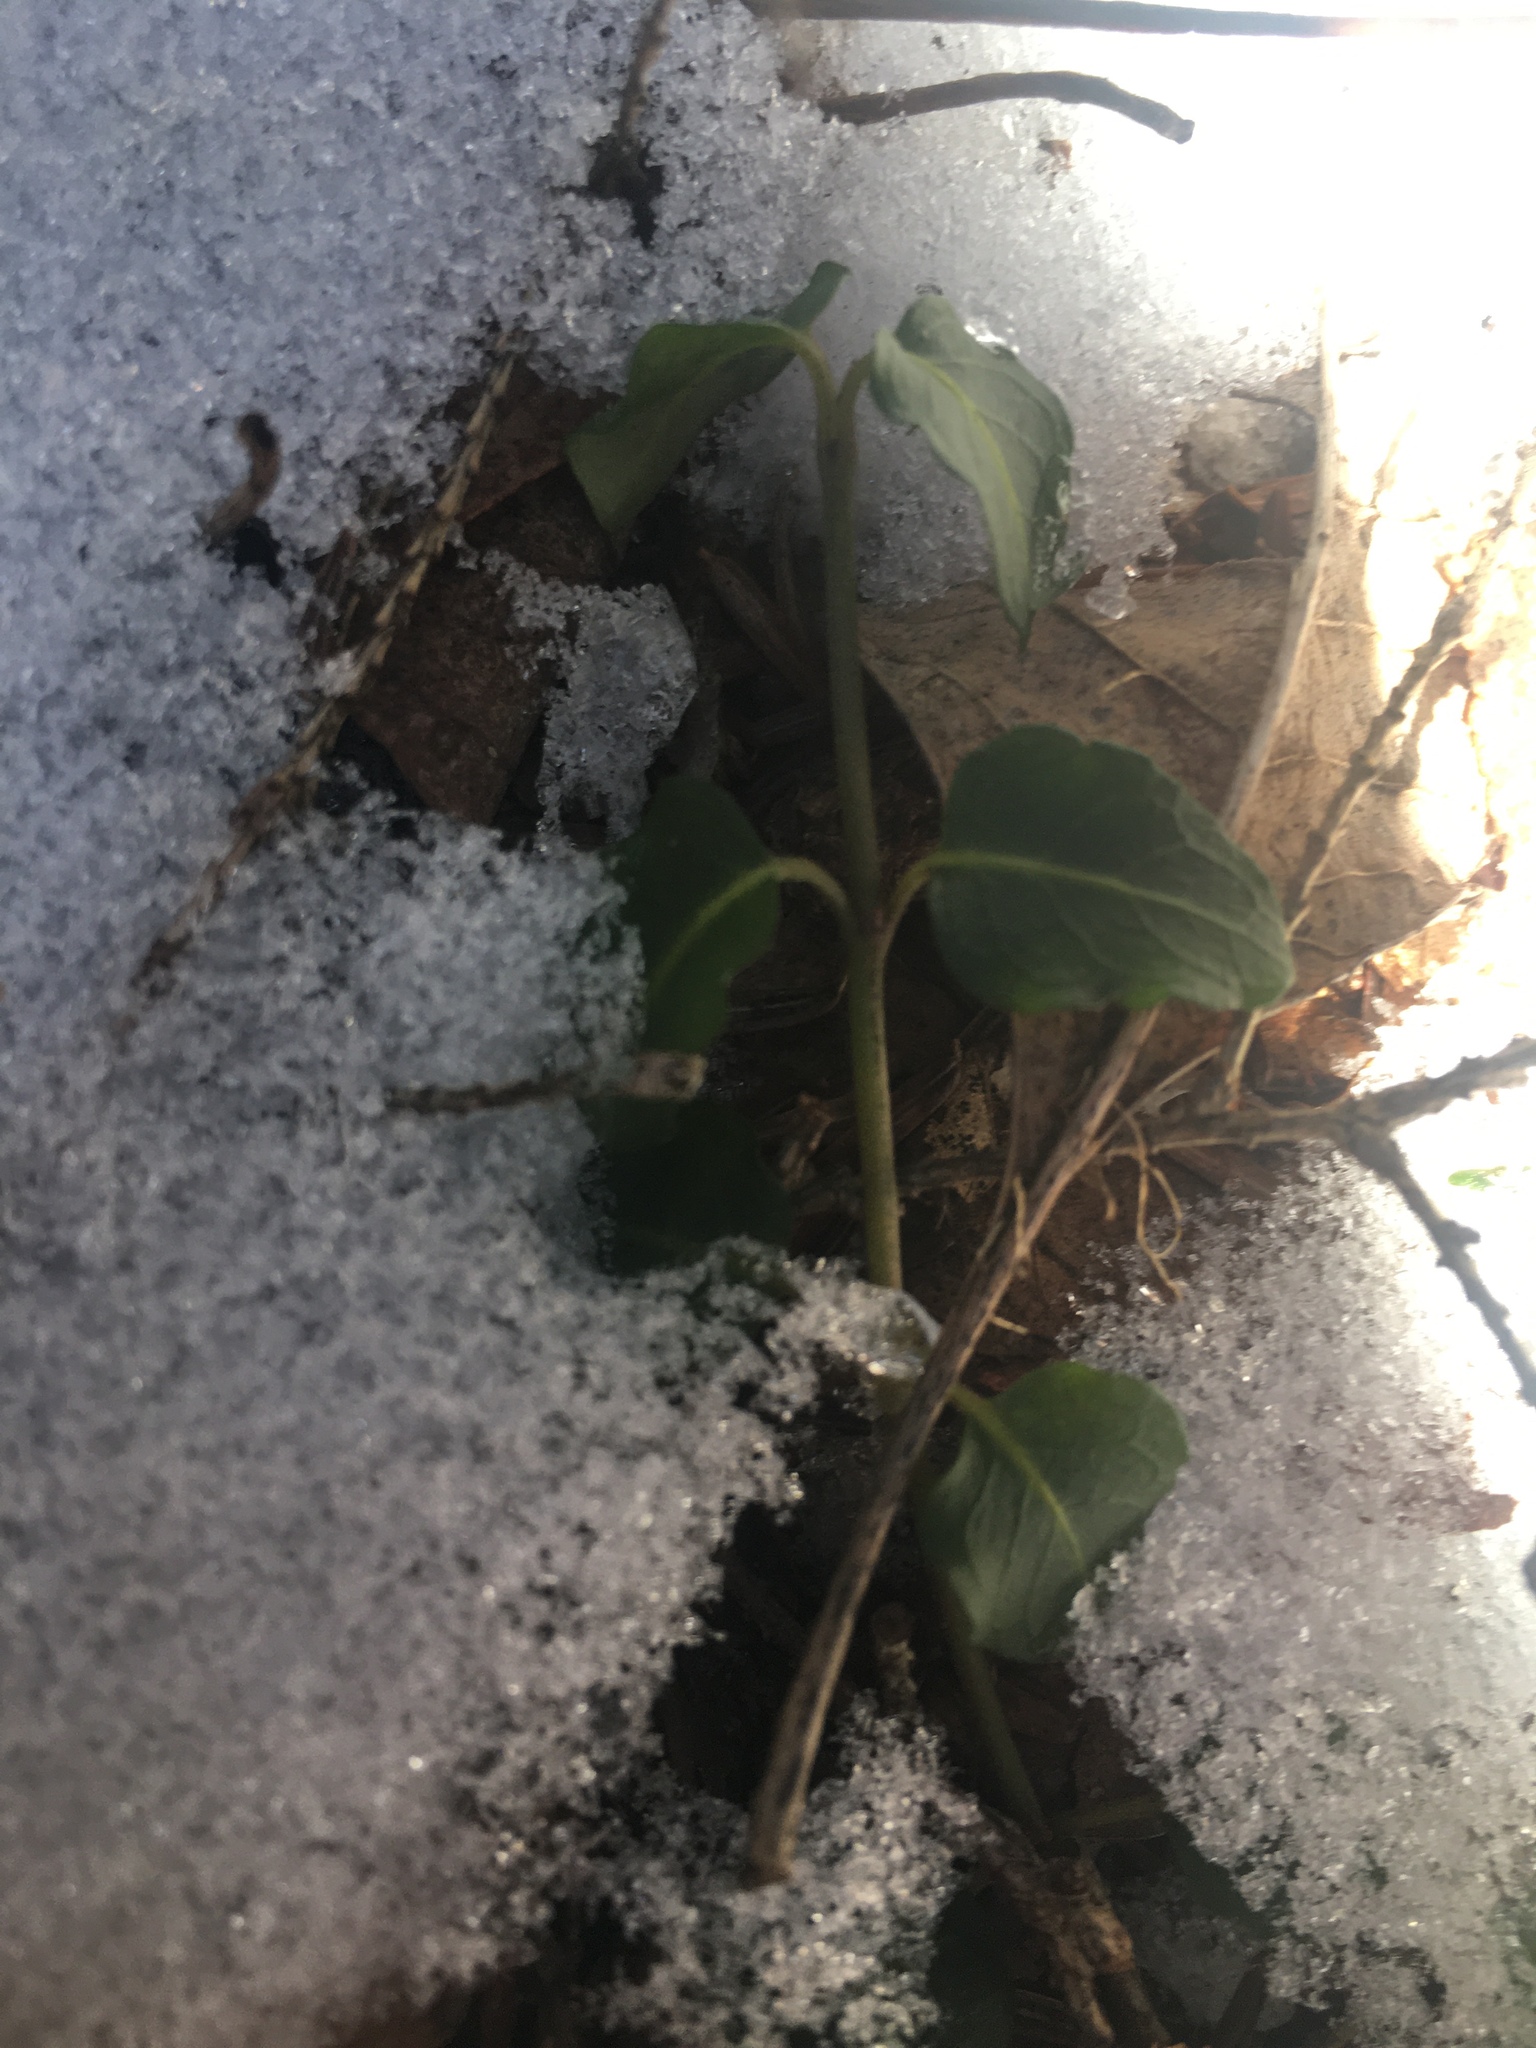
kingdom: Plantae
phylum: Tracheophyta
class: Magnoliopsida
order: Gentianales
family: Rubiaceae
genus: Mitchella
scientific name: Mitchella repens
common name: Partridge-berry
